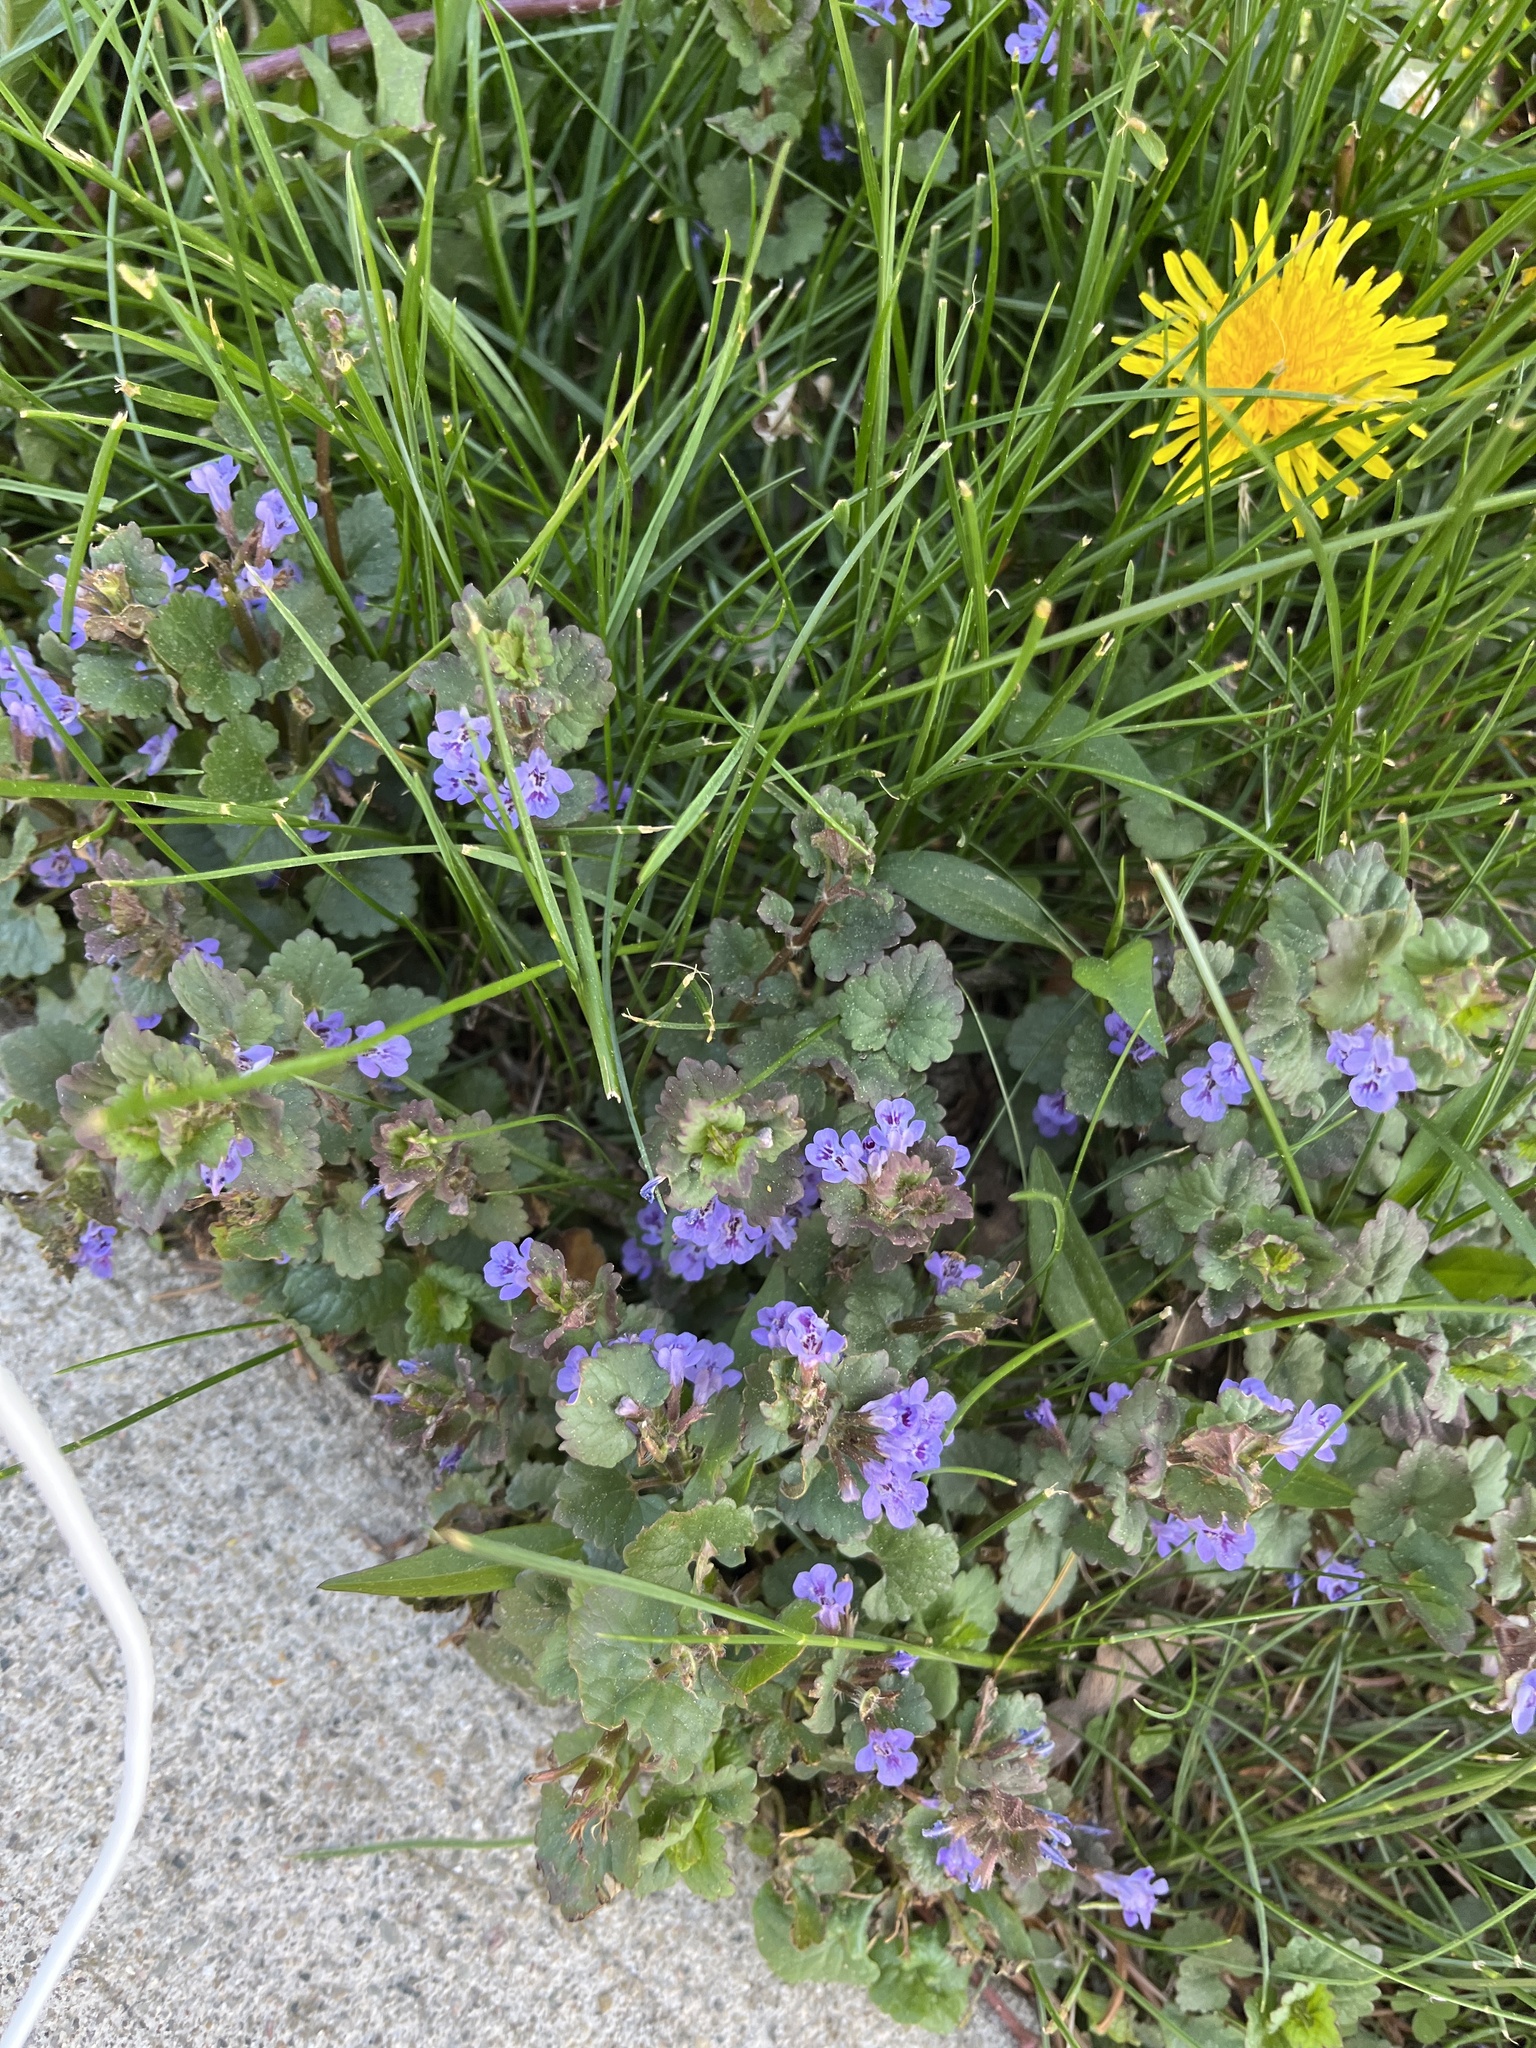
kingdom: Plantae
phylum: Tracheophyta
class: Magnoliopsida
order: Lamiales
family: Lamiaceae
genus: Glechoma
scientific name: Glechoma hederacea
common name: Ground ivy
